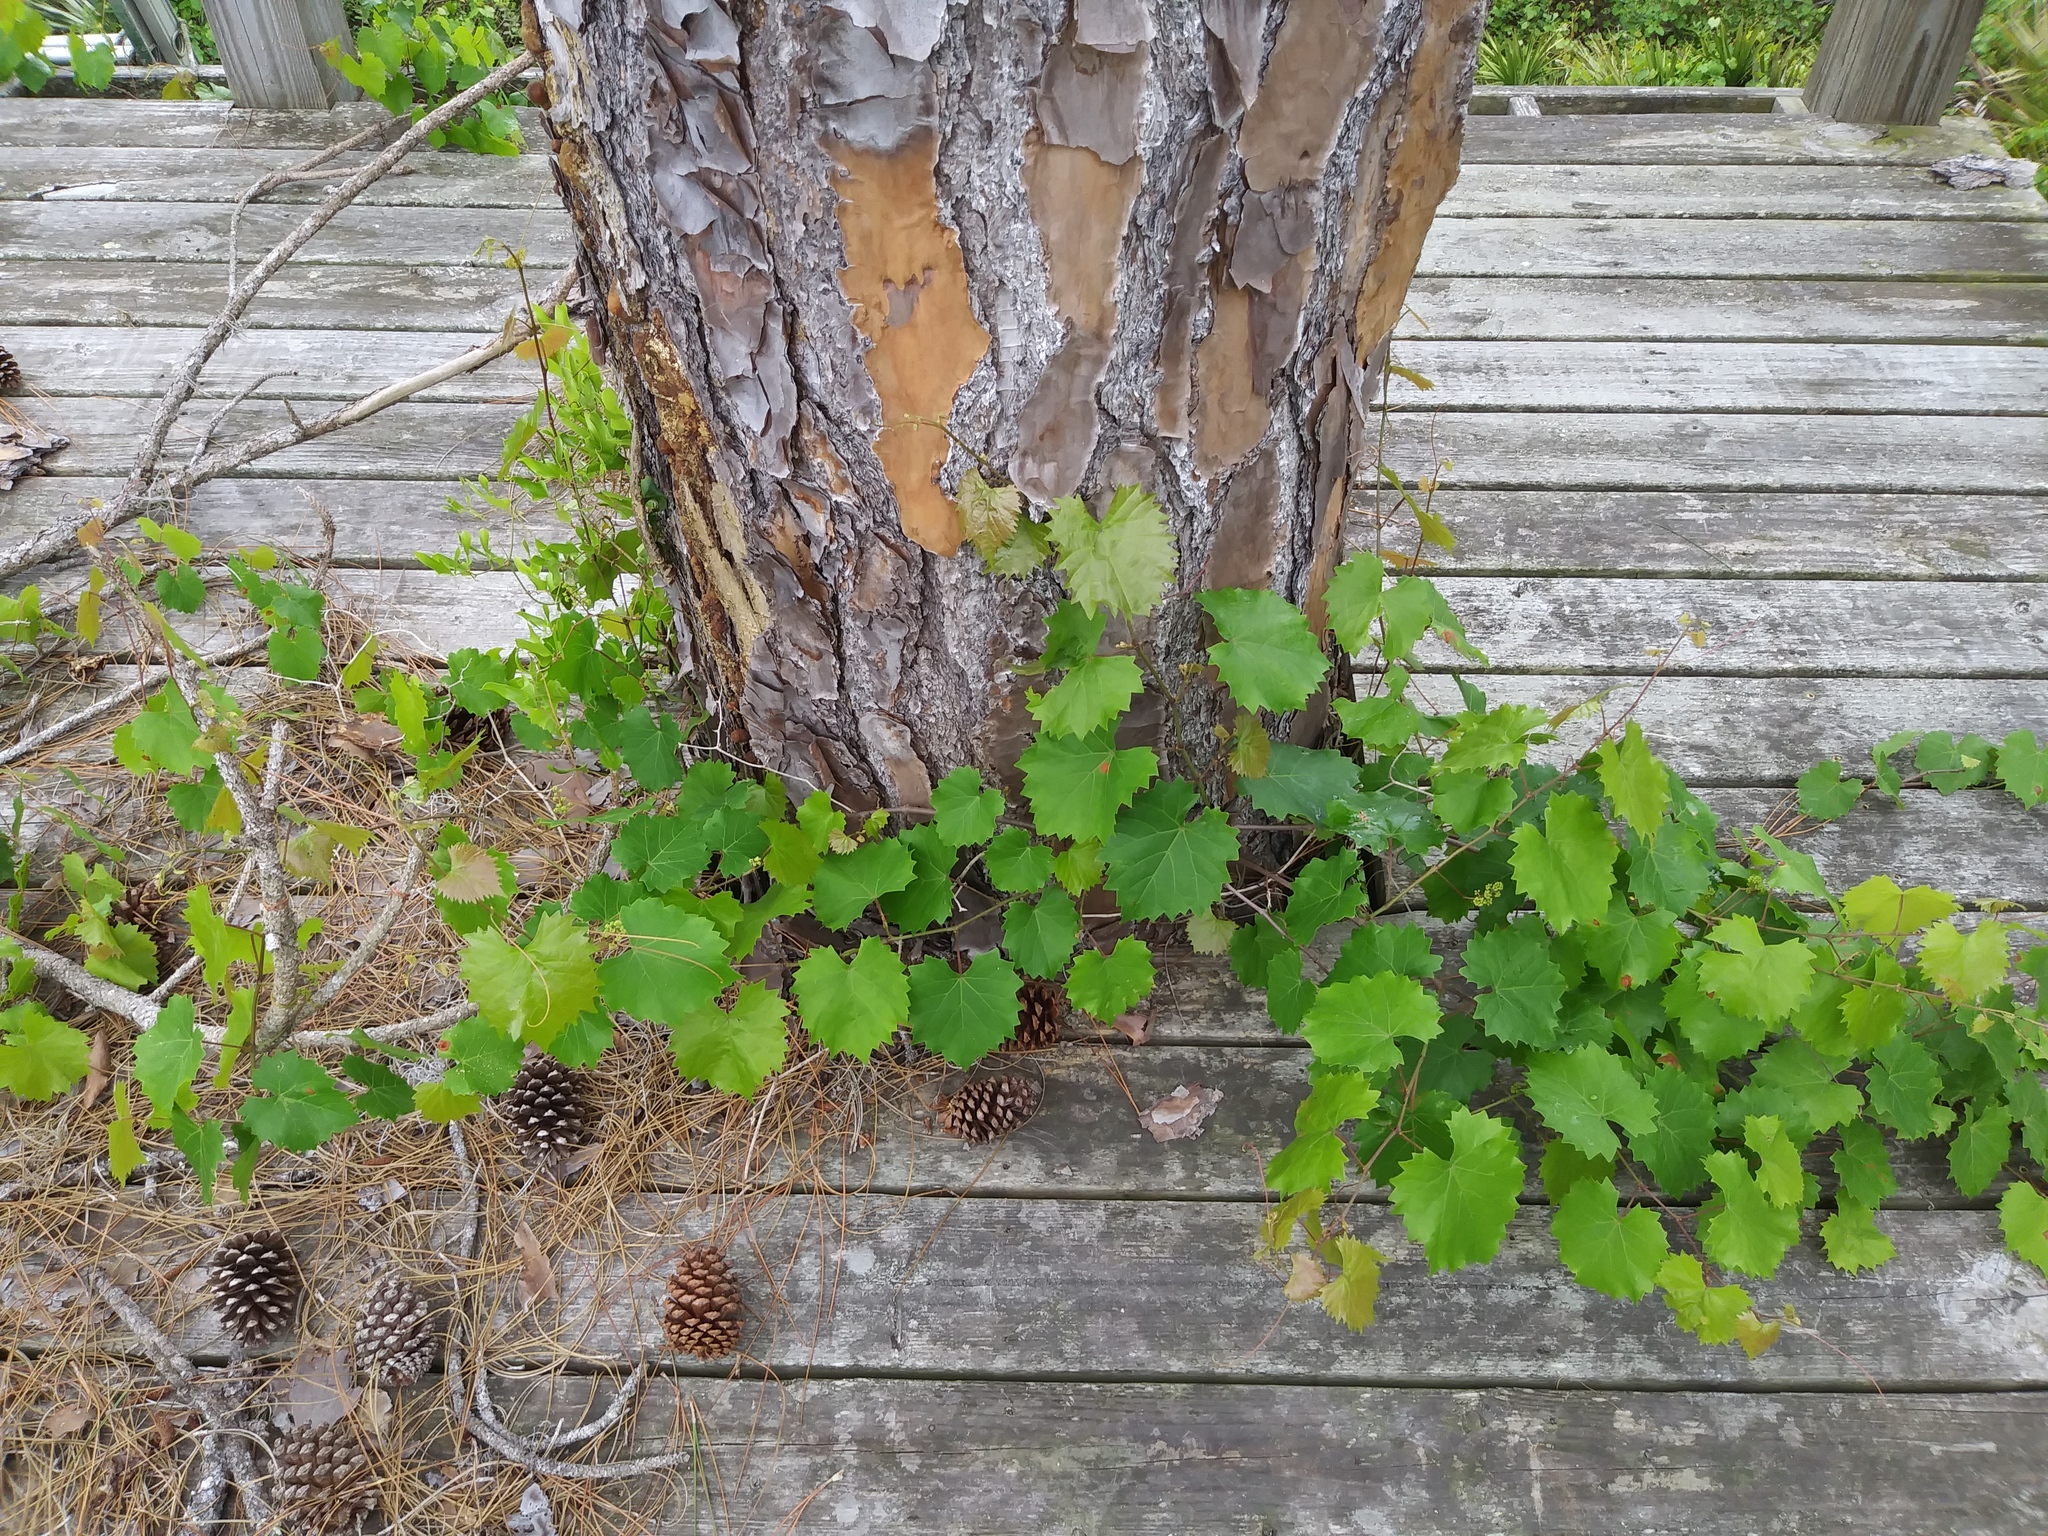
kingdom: Plantae
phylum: Tracheophyta
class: Magnoliopsida
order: Vitales
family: Vitaceae
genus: Vitis
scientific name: Vitis rotundifolia
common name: Muscadine grape
